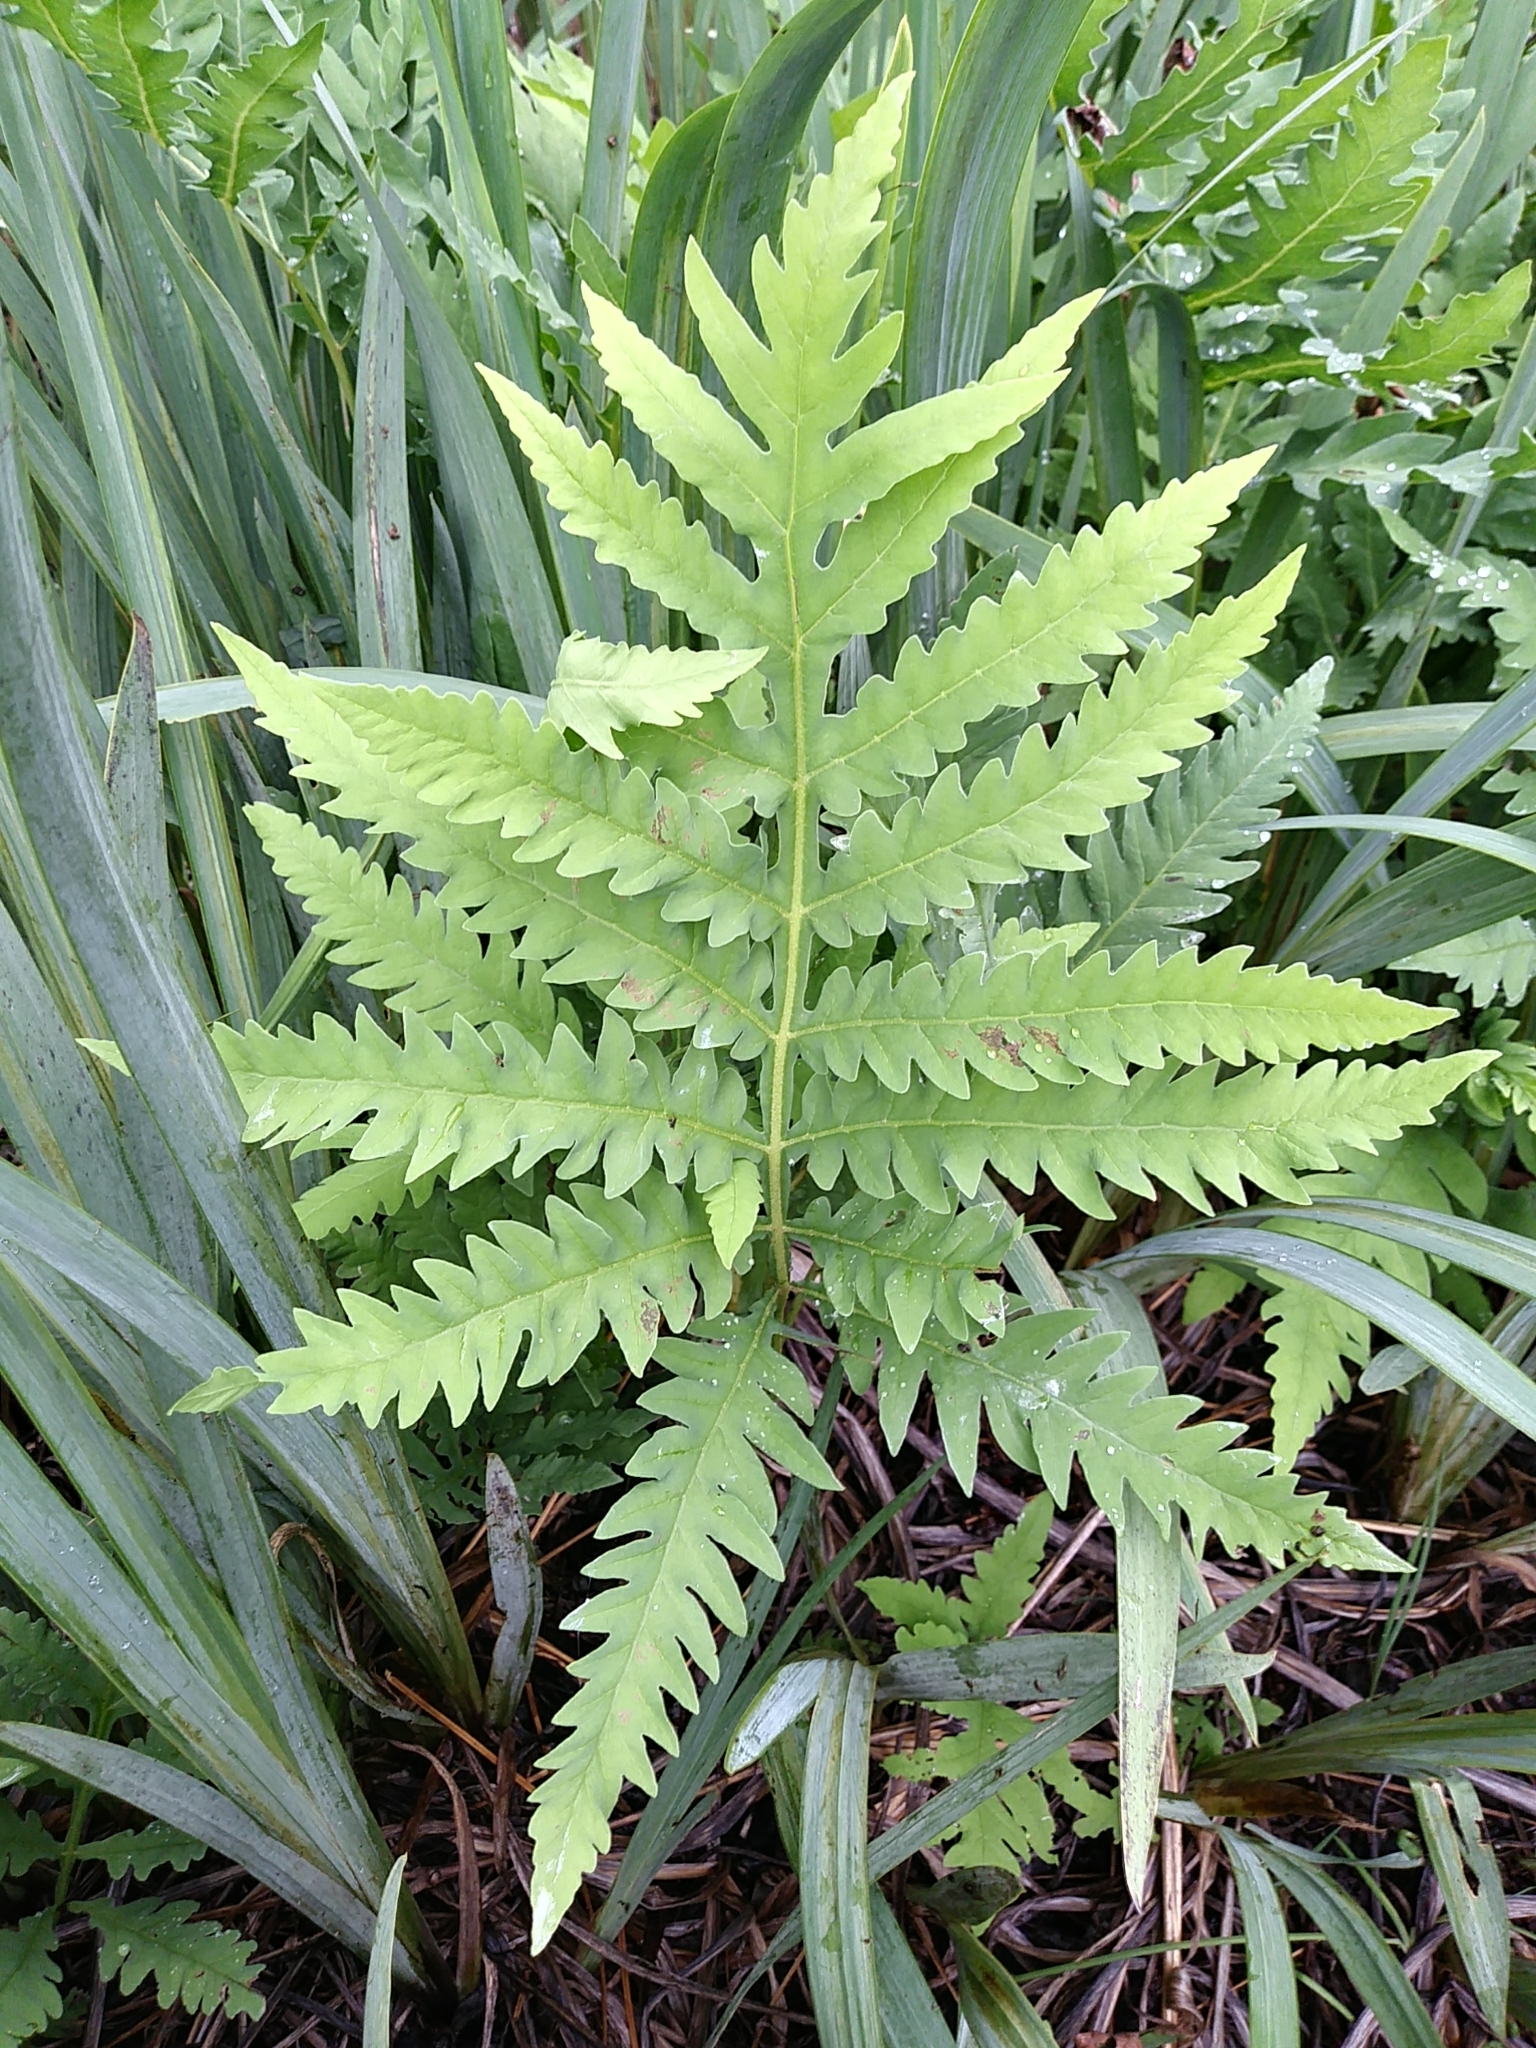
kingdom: Plantae
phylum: Tracheophyta
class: Polypodiopsida
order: Polypodiales
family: Onocleaceae
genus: Onoclea
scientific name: Onoclea sensibilis
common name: Sensitive fern
